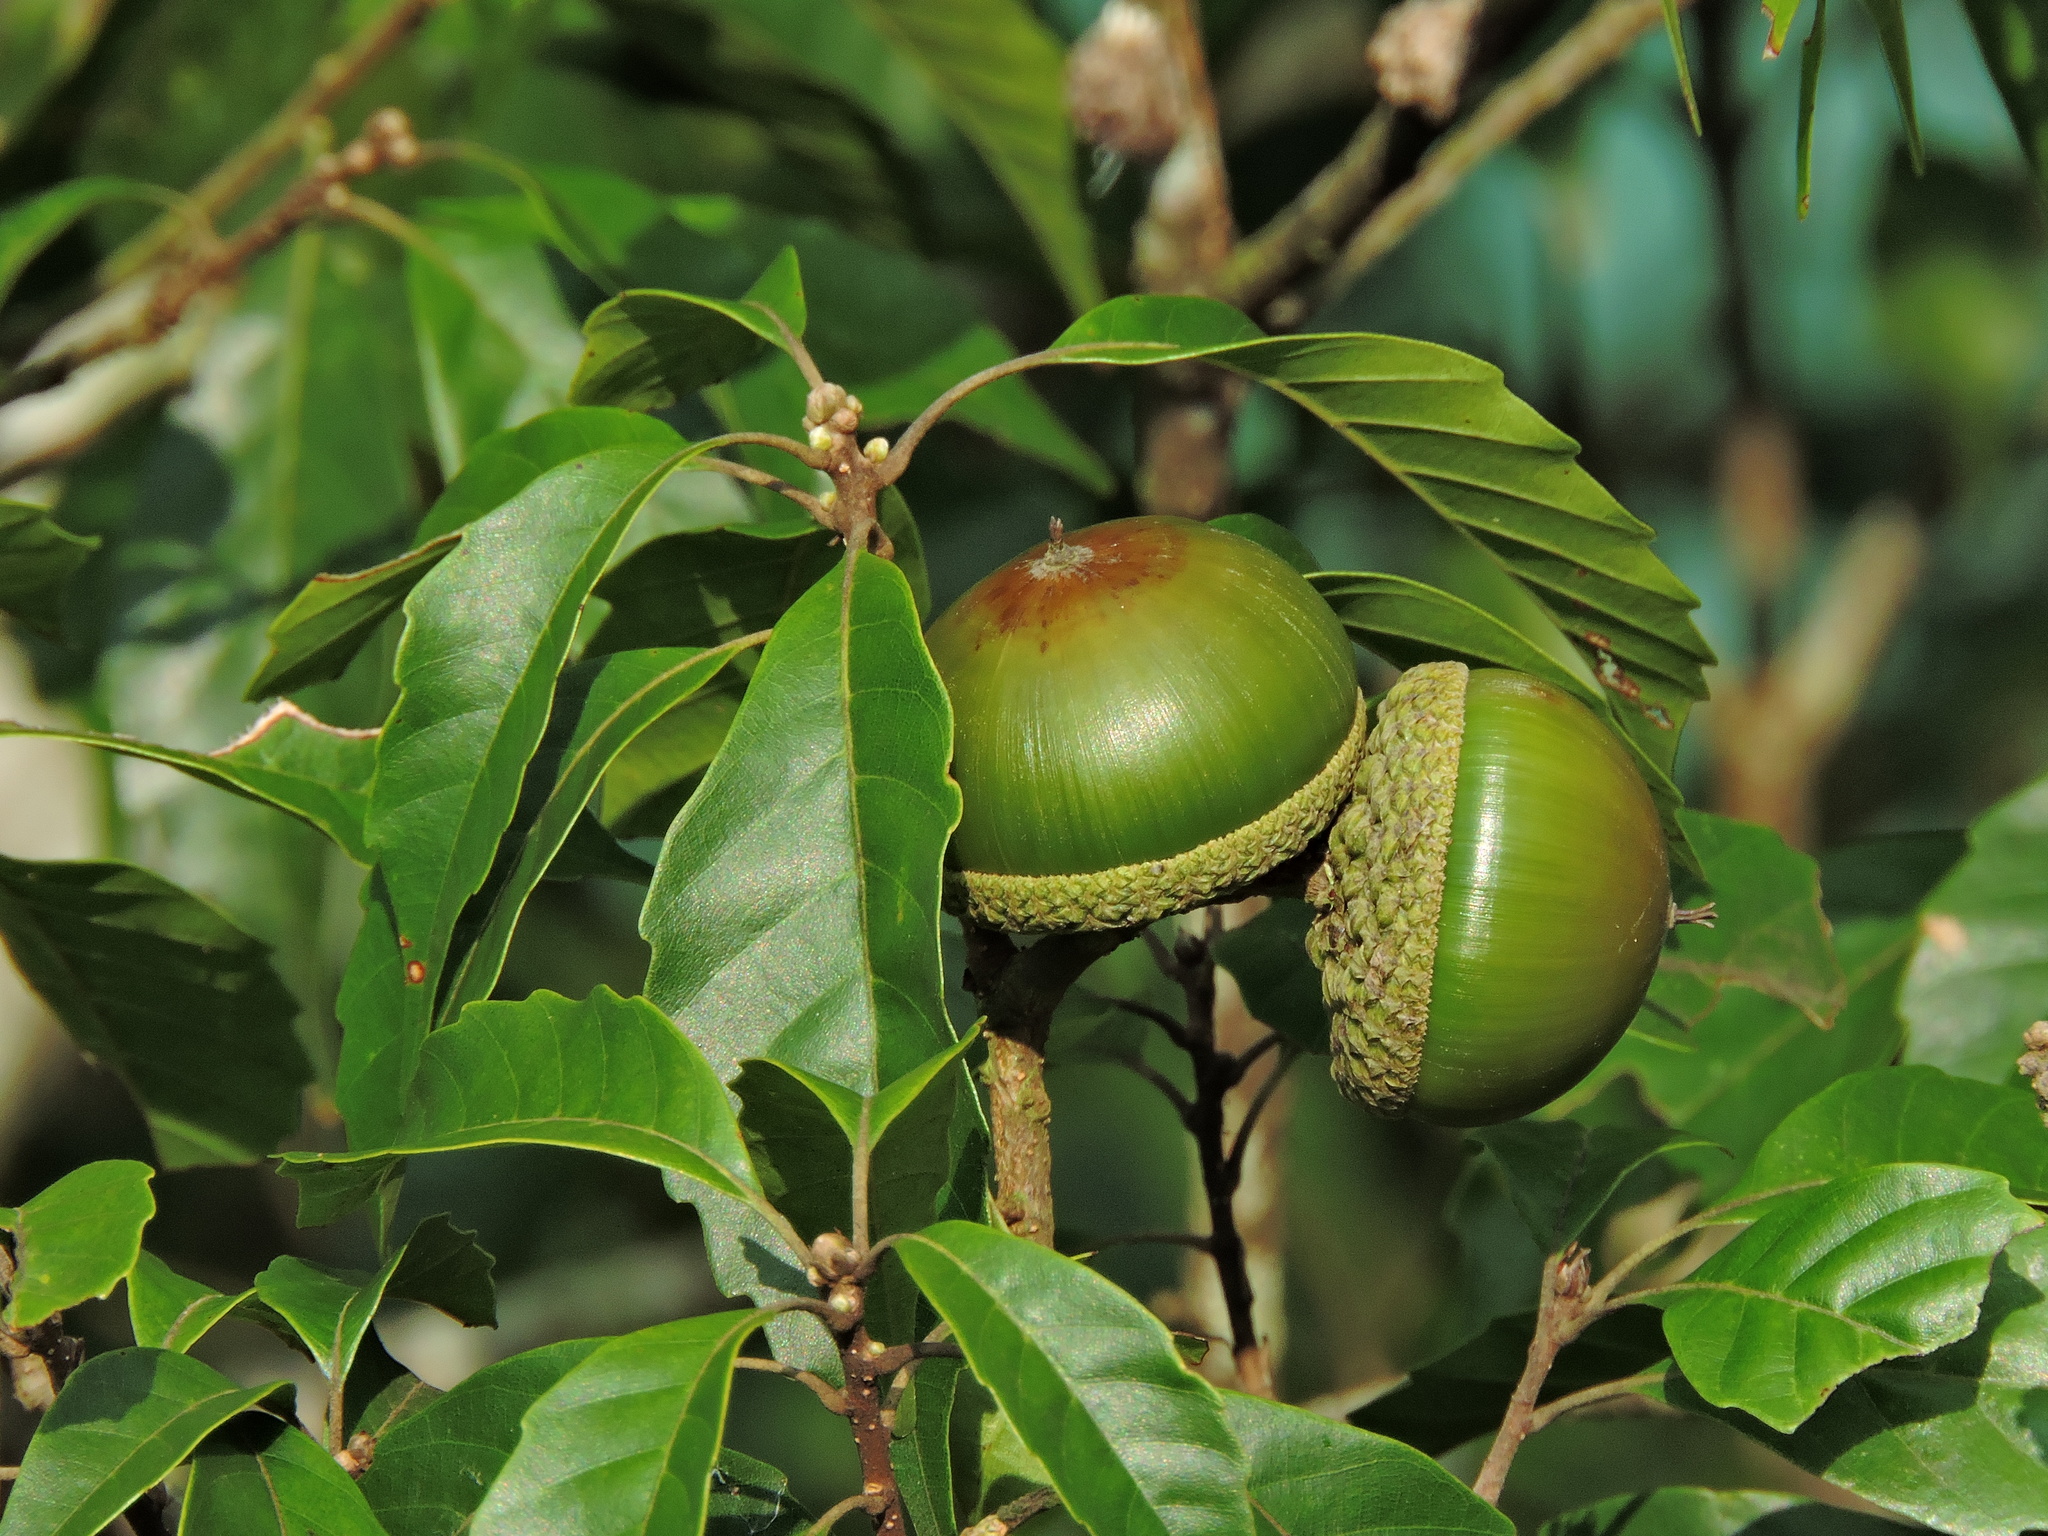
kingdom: Plantae
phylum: Tracheophyta
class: Magnoliopsida
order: Fagales
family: Fagaceae
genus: Lithocarpus
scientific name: Lithocarpus konishii
